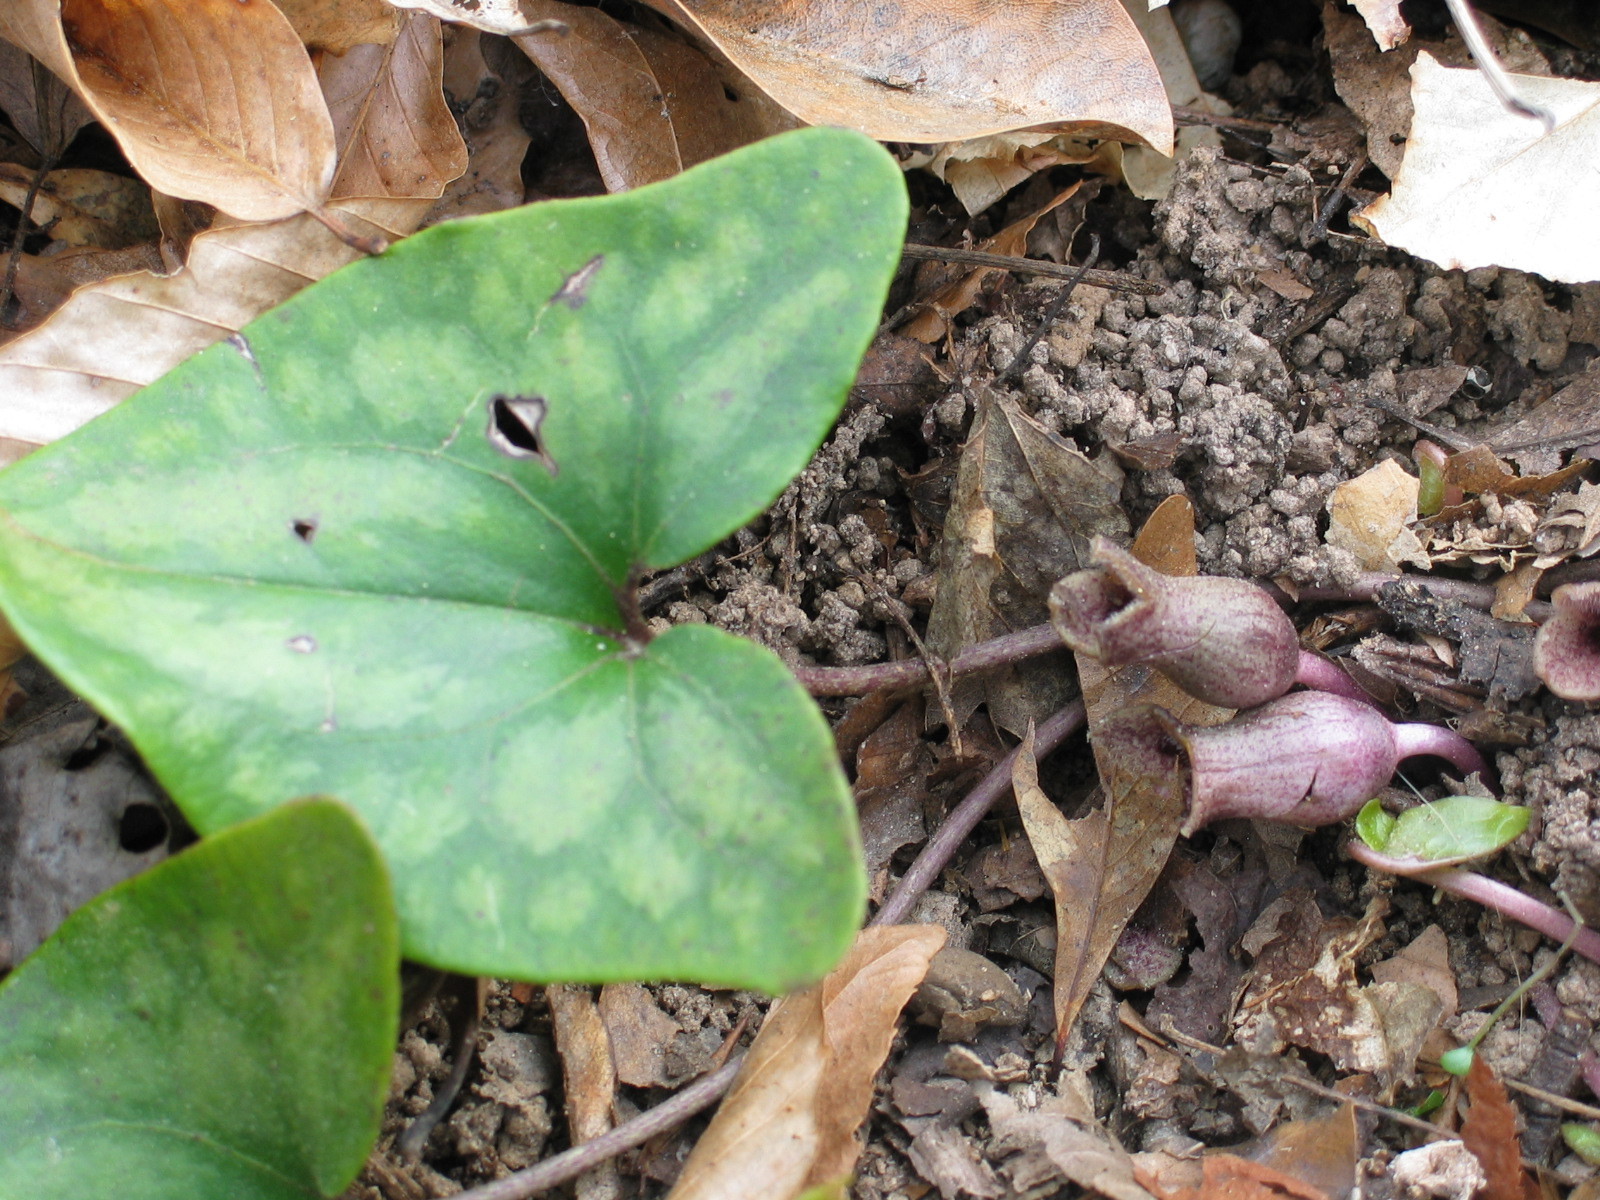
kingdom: Plantae
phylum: Tracheophyta
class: Magnoliopsida
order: Piperales
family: Aristolochiaceae
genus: Hexastylis
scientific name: Hexastylis arifolia
